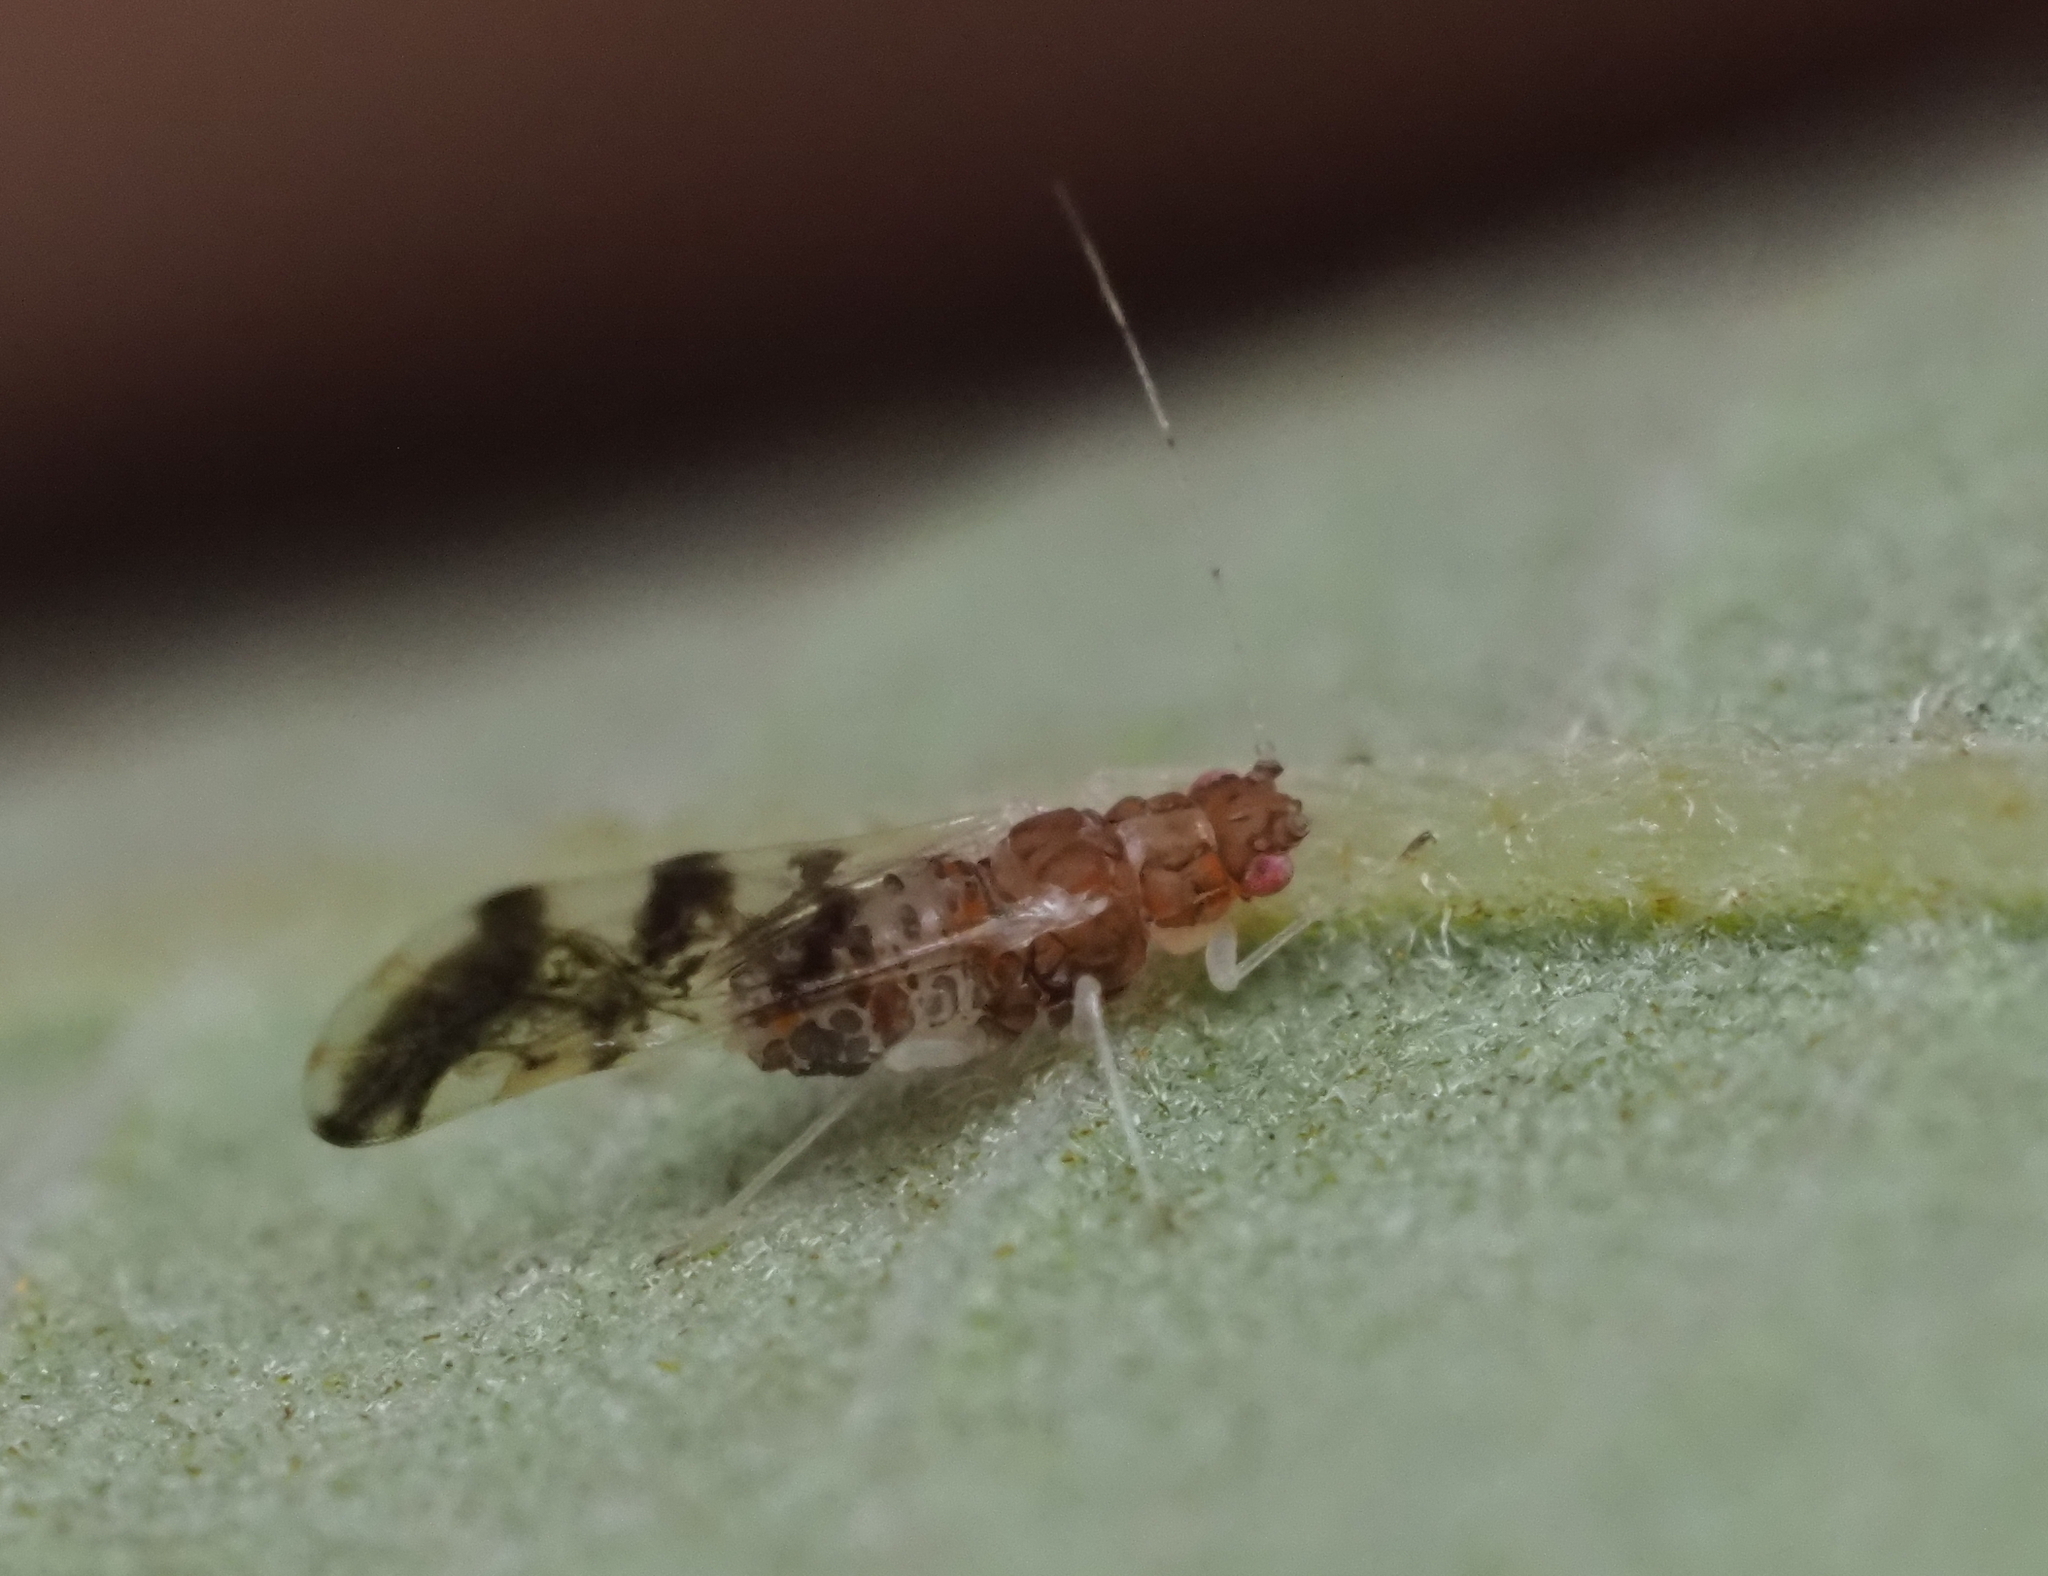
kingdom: Animalia
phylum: Arthropoda
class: Insecta
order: Hemiptera
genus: Neomyzocallis
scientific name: Neomyzocallis
